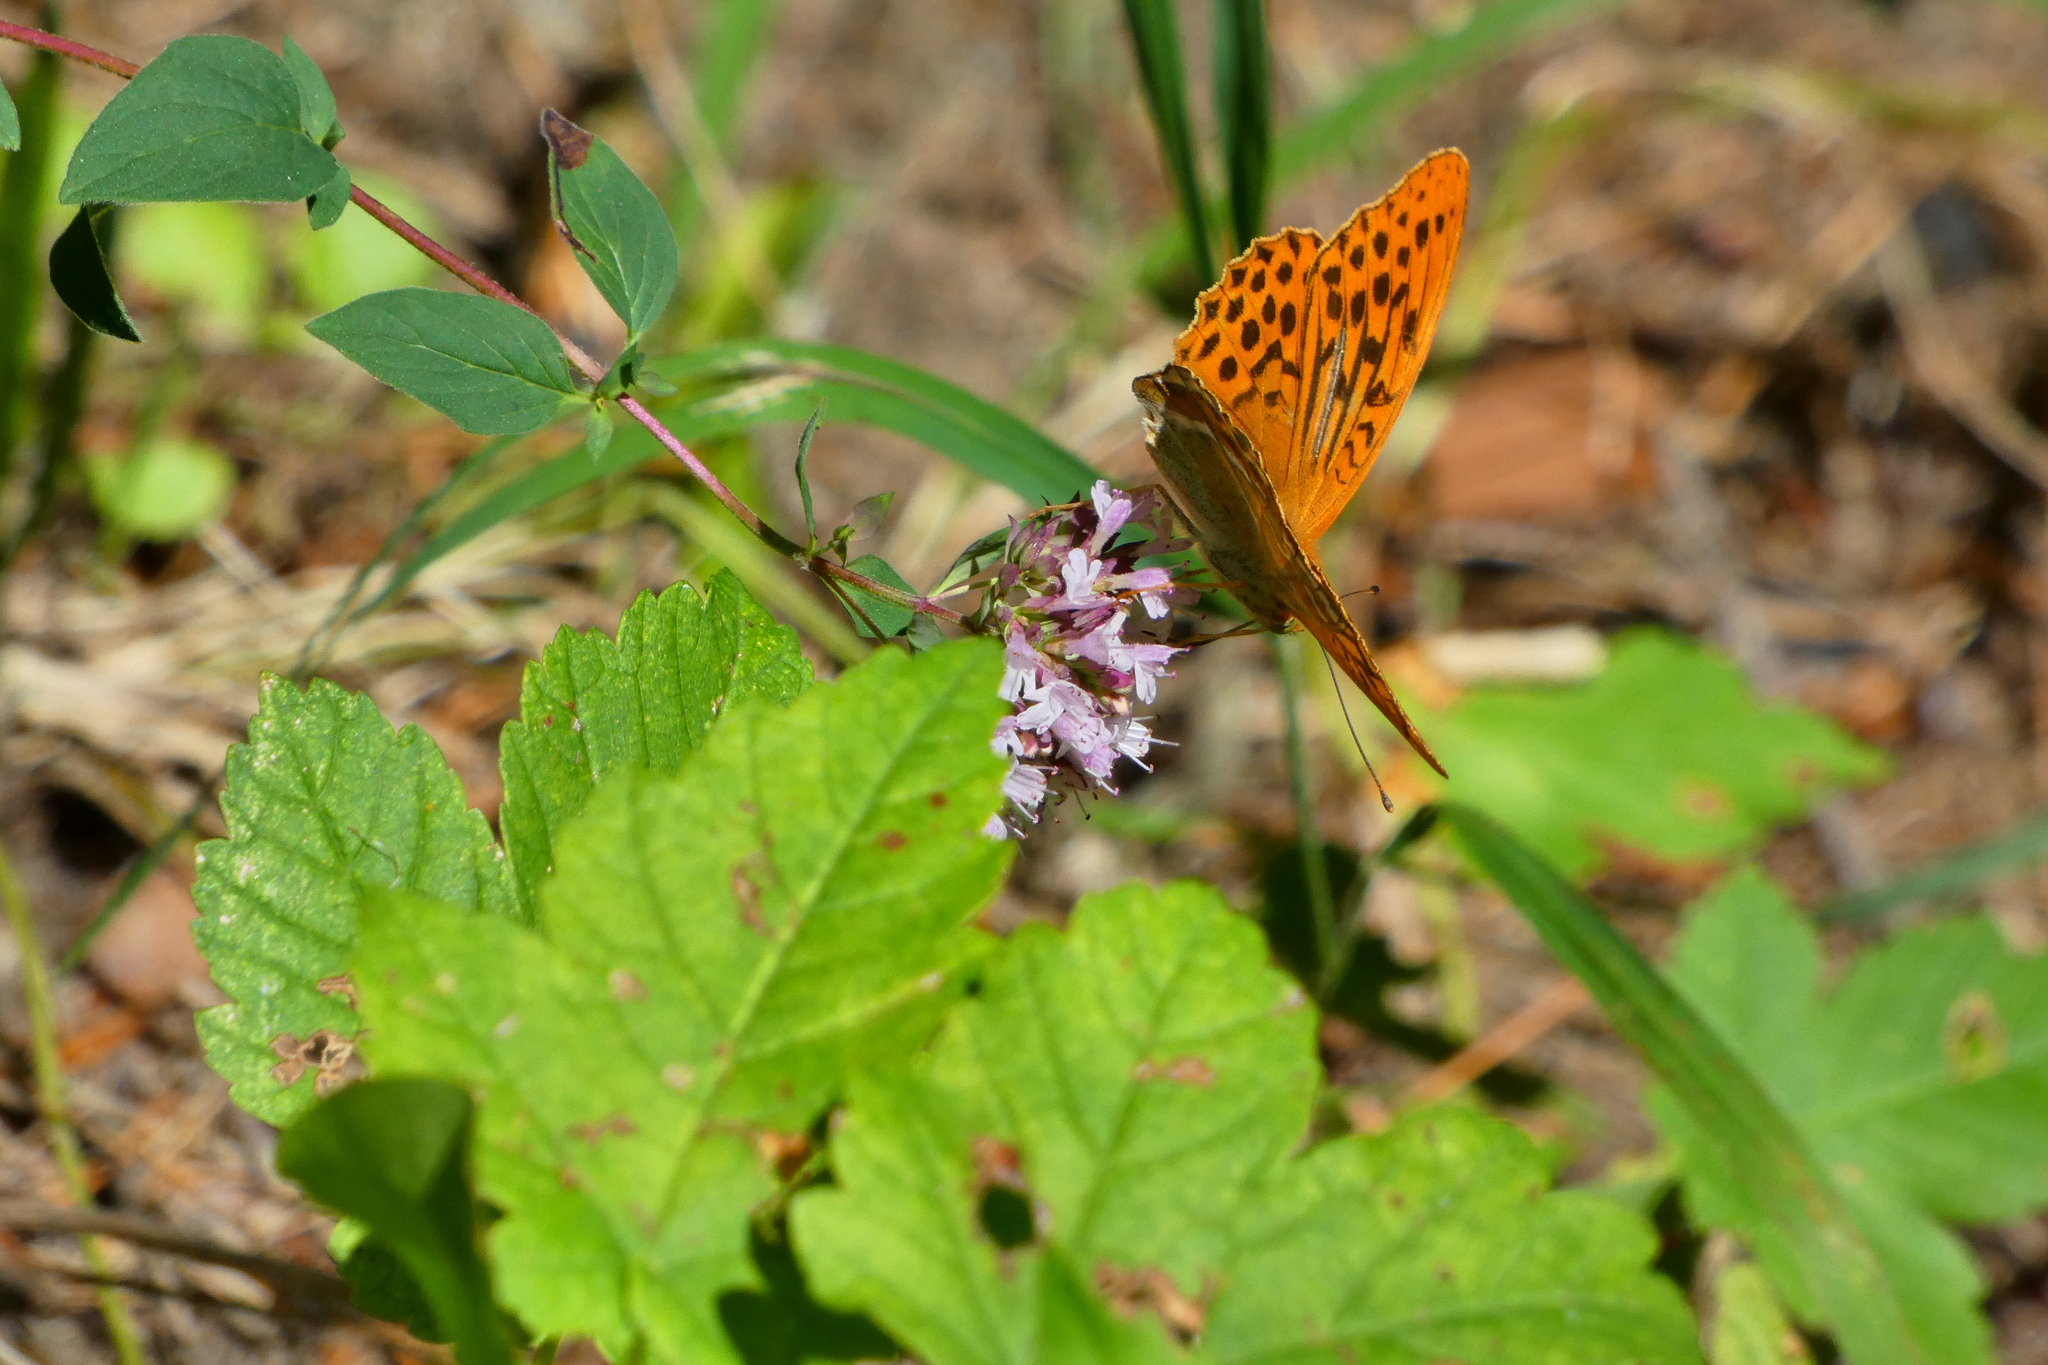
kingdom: Animalia
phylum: Arthropoda
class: Insecta
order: Lepidoptera
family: Nymphalidae
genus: Argynnis
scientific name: Argynnis paphia
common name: Silver-washed fritillary
